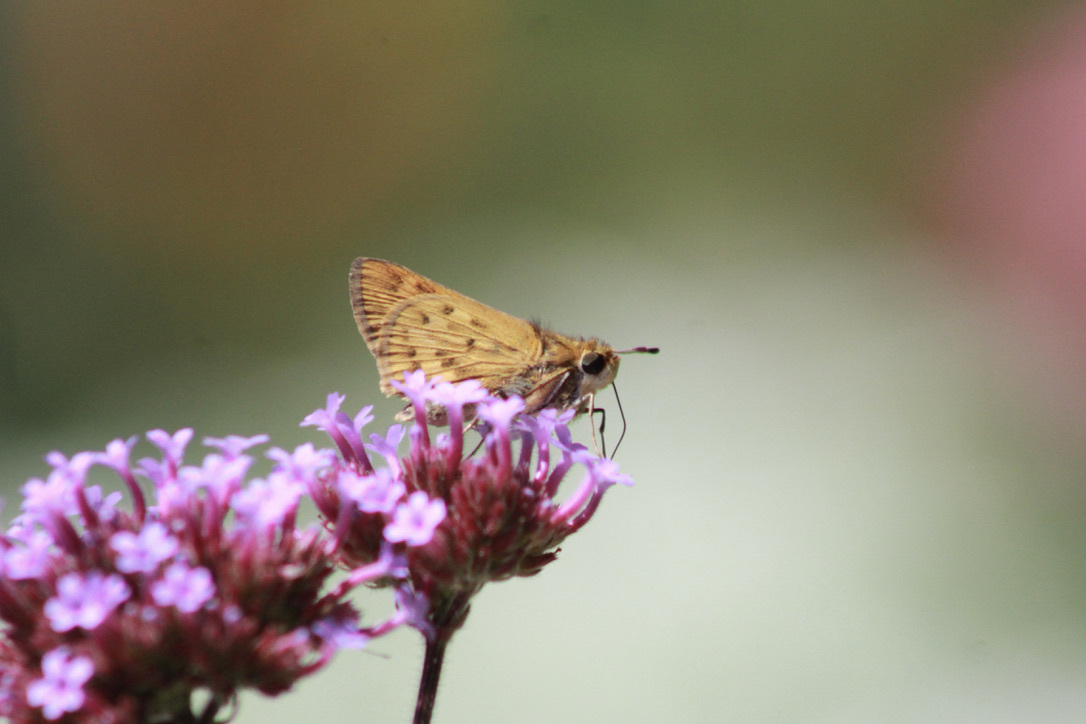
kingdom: Animalia
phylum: Arthropoda
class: Insecta
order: Lepidoptera
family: Hesperiidae
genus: Hylephila
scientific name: Hylephila phyleus
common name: Fiery skipper
